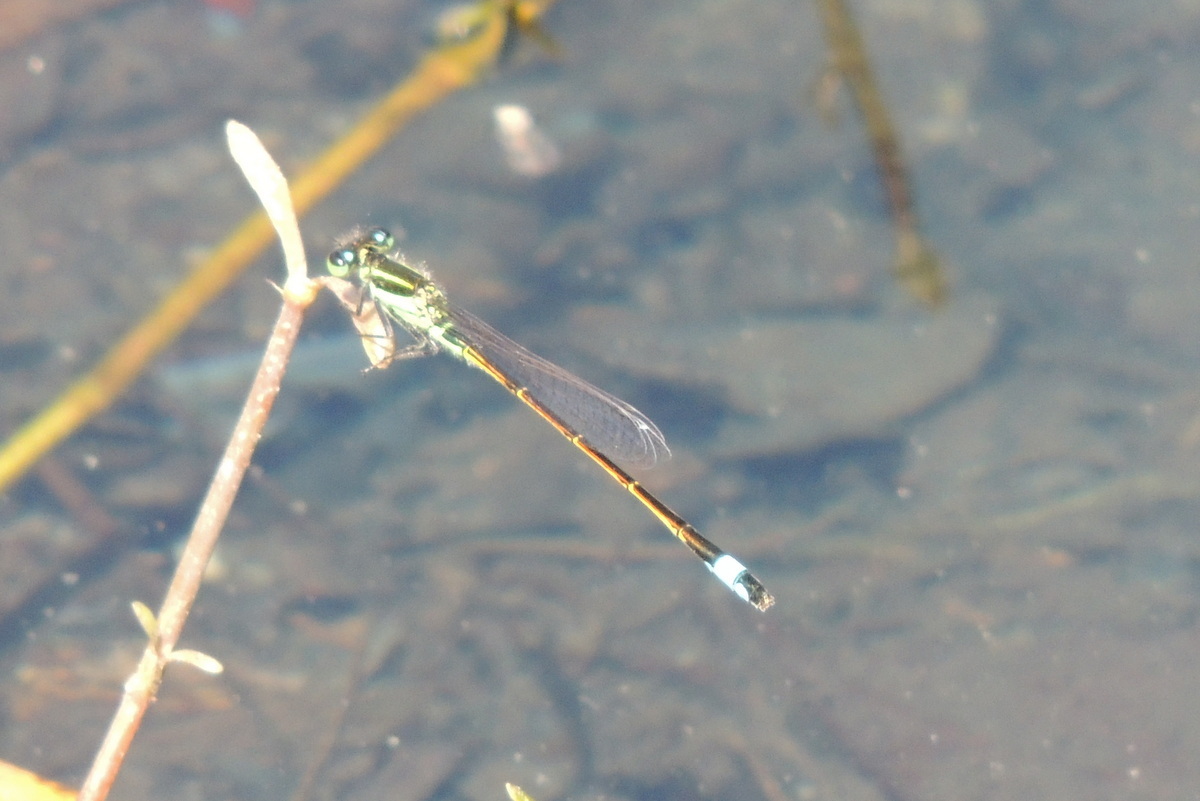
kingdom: Animalia
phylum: Arthropoda
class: Insecta
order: Odonata
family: Coenagrionidae
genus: Ischnura
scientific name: Ischnura ramburii
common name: Rambur's forktail
